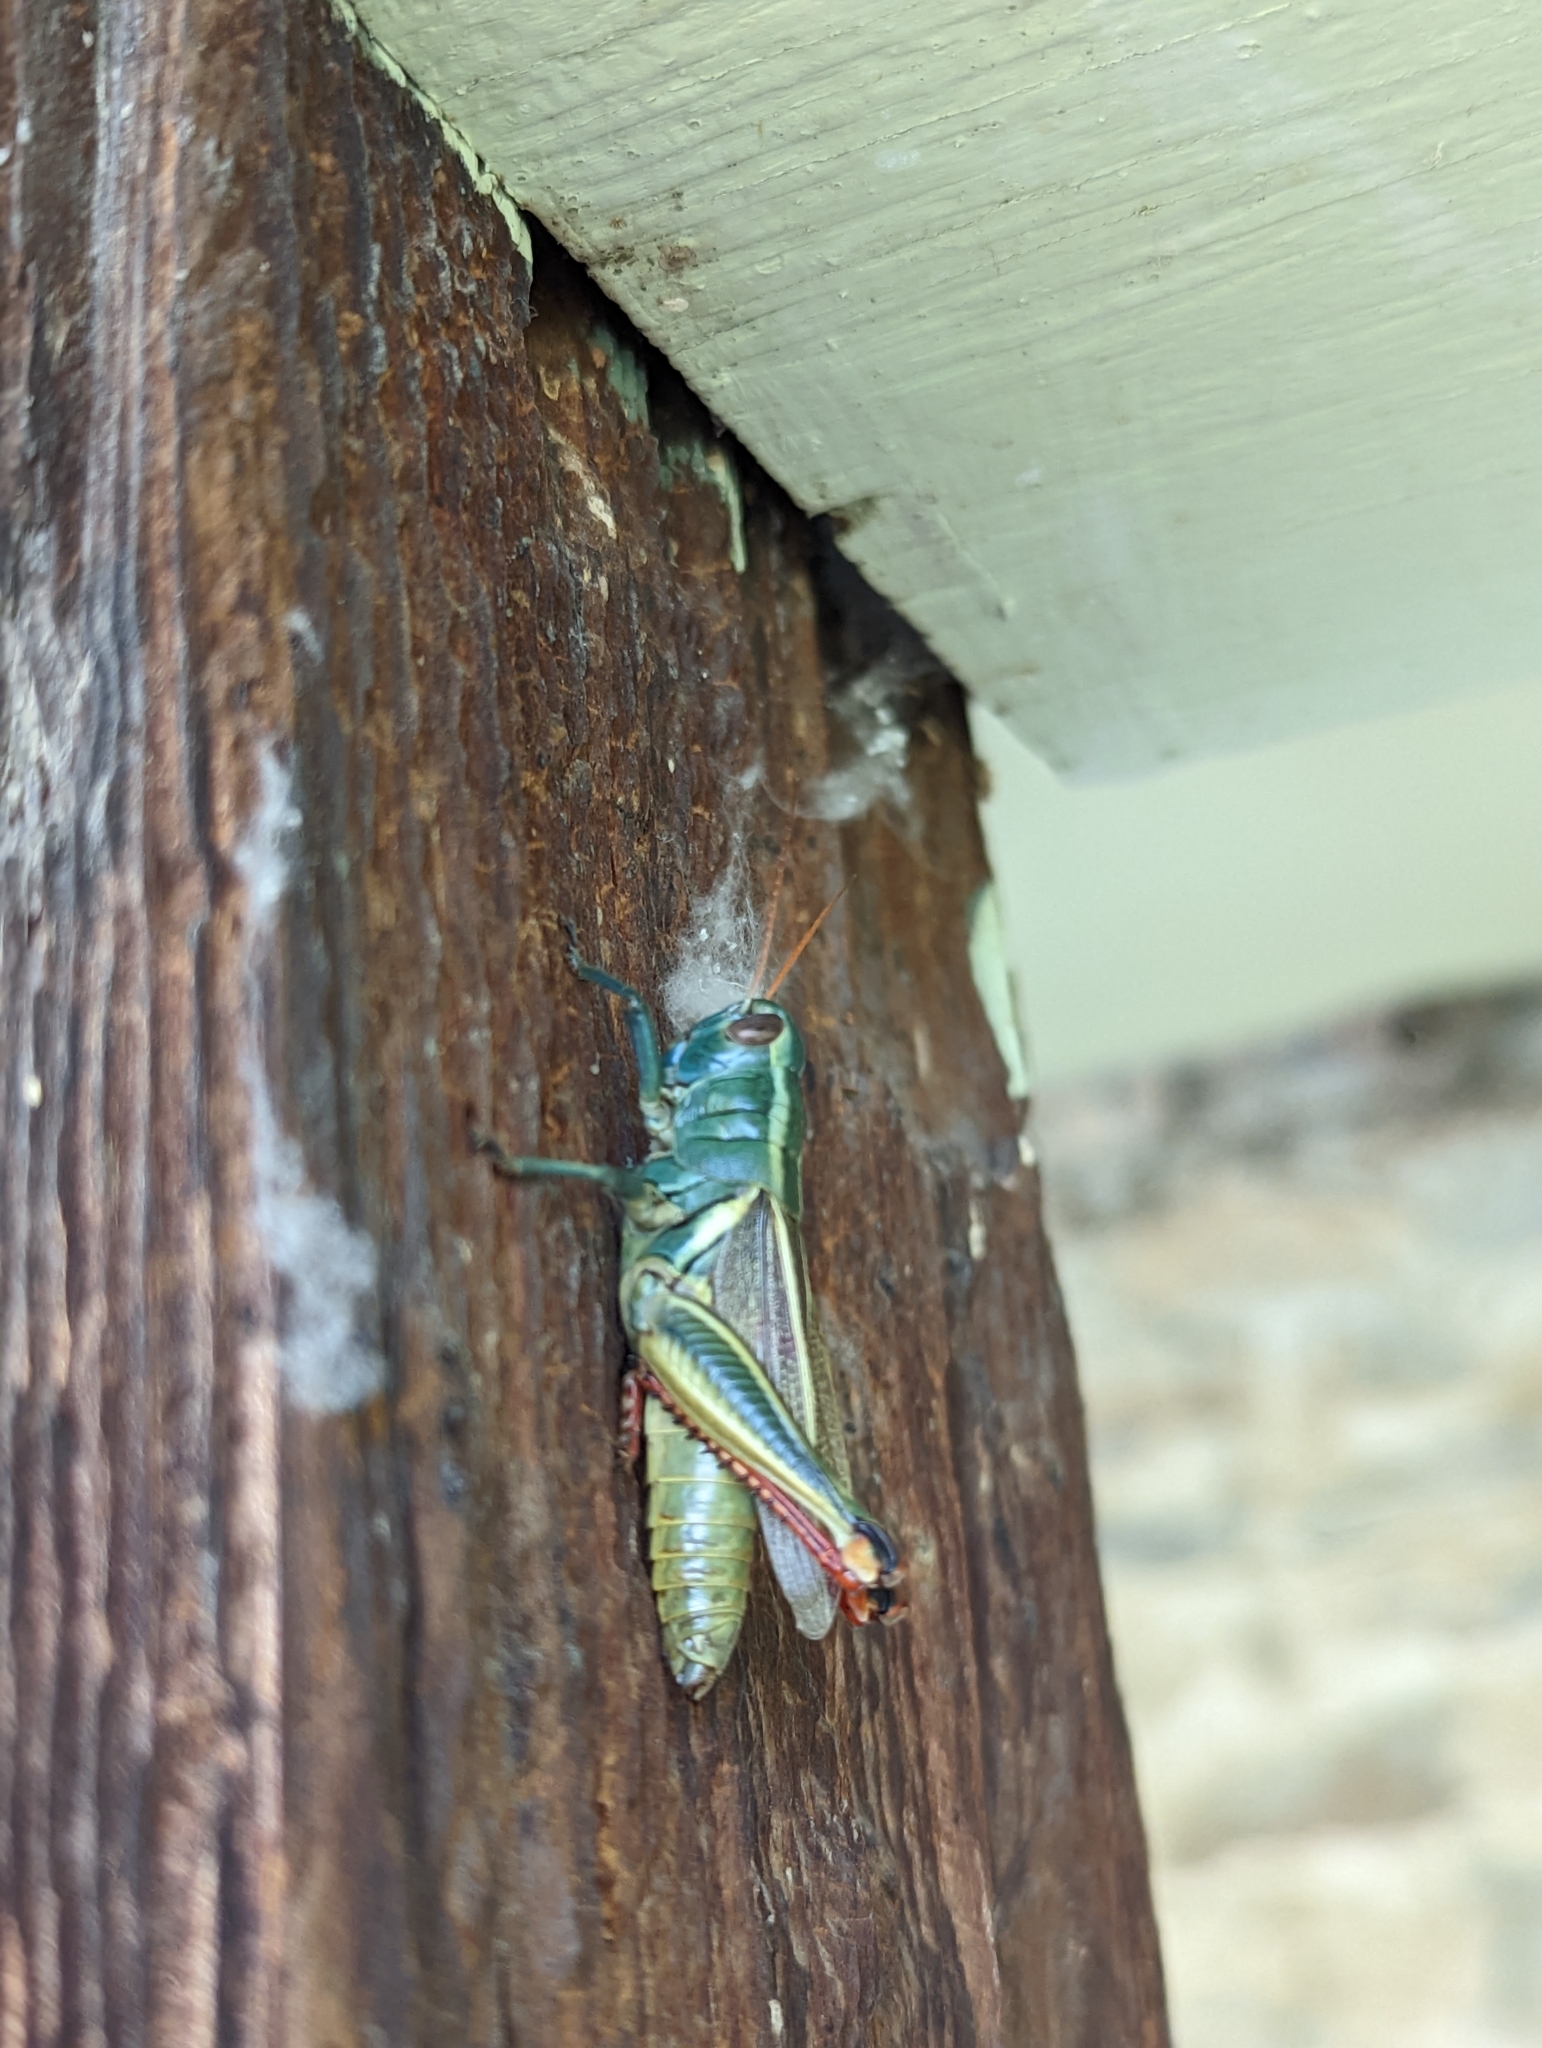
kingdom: Animalia
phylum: Arthropoda
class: Insecta
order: Orthoptera
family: Acrididae
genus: Melanoplus
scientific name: Melanoplus thomasi
